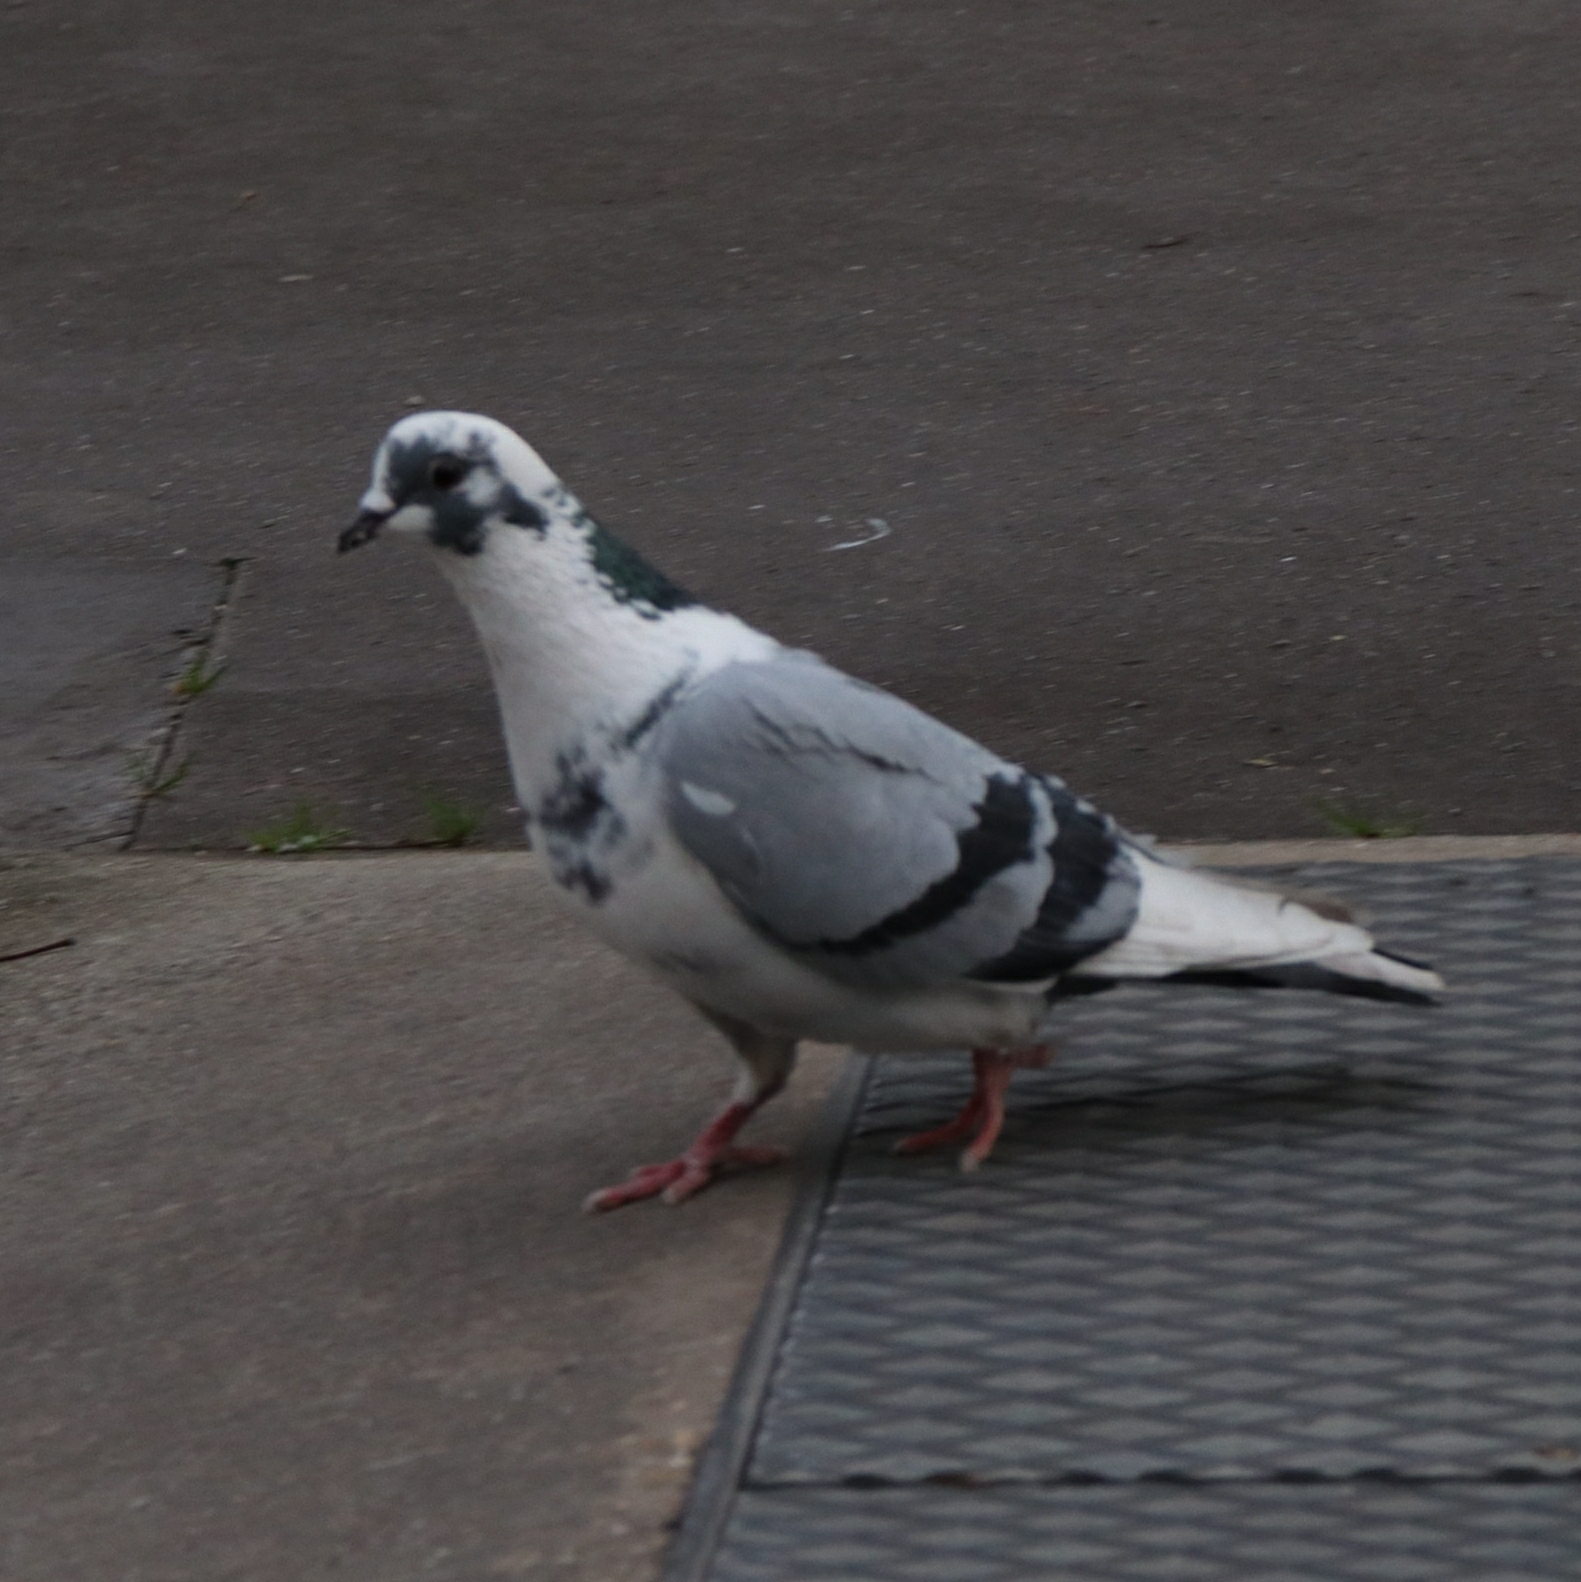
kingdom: Animalia
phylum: Chordata
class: Aves
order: Columbiformes
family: Columbidae
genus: Columba
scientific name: Columba livia
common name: Rock pigeon
